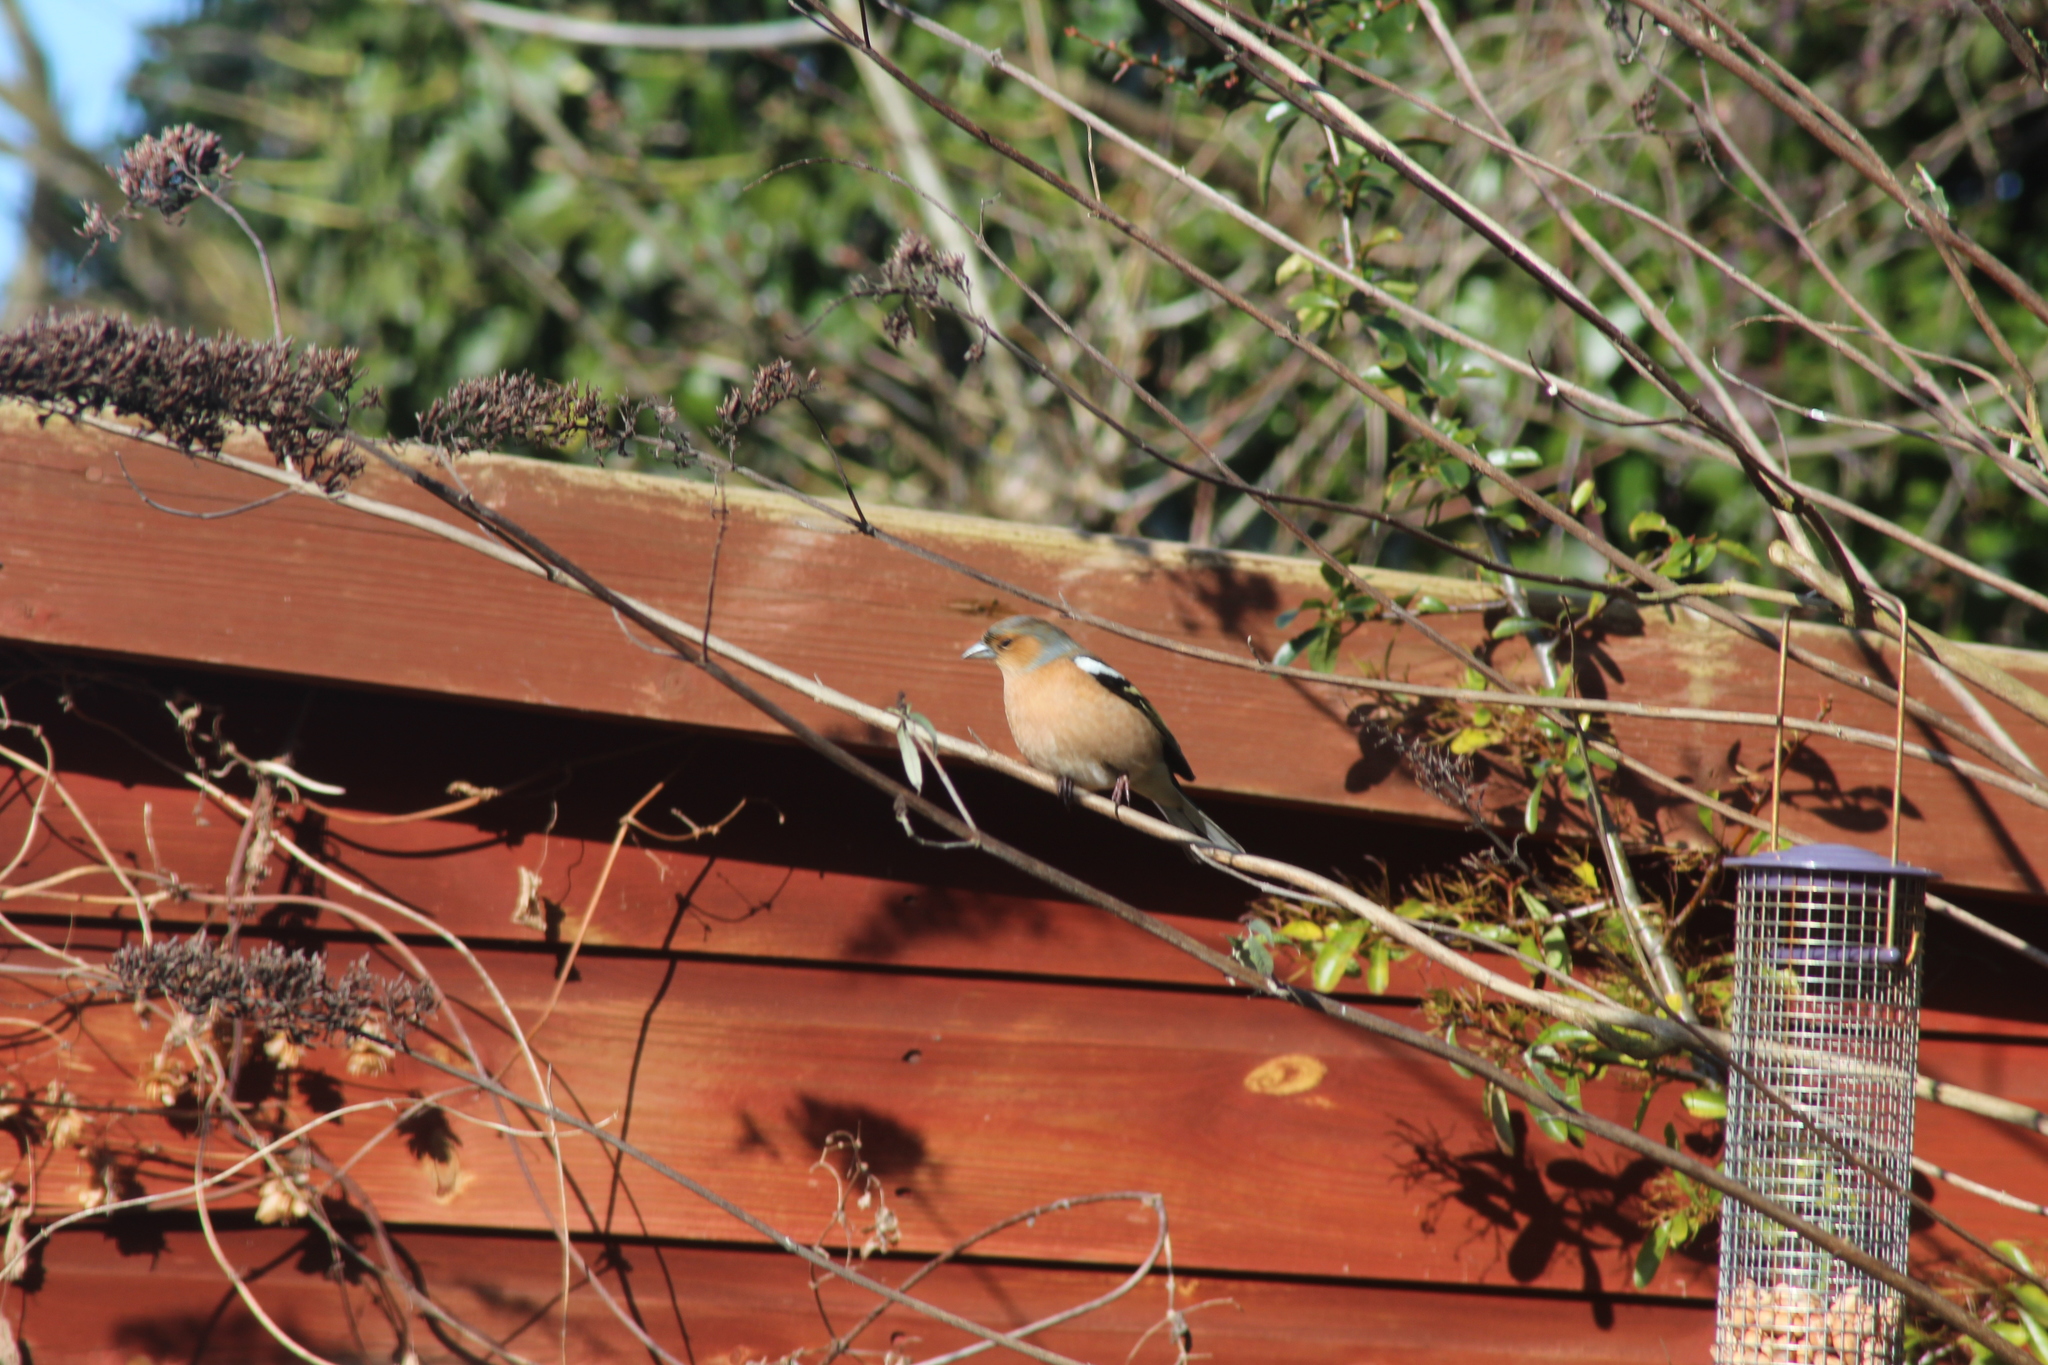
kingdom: Animalia
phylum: Chordata
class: Aves
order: Passeriformes
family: Fringillidae
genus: Fringilla
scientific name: Fringilla coelebs
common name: Common chaffinch
